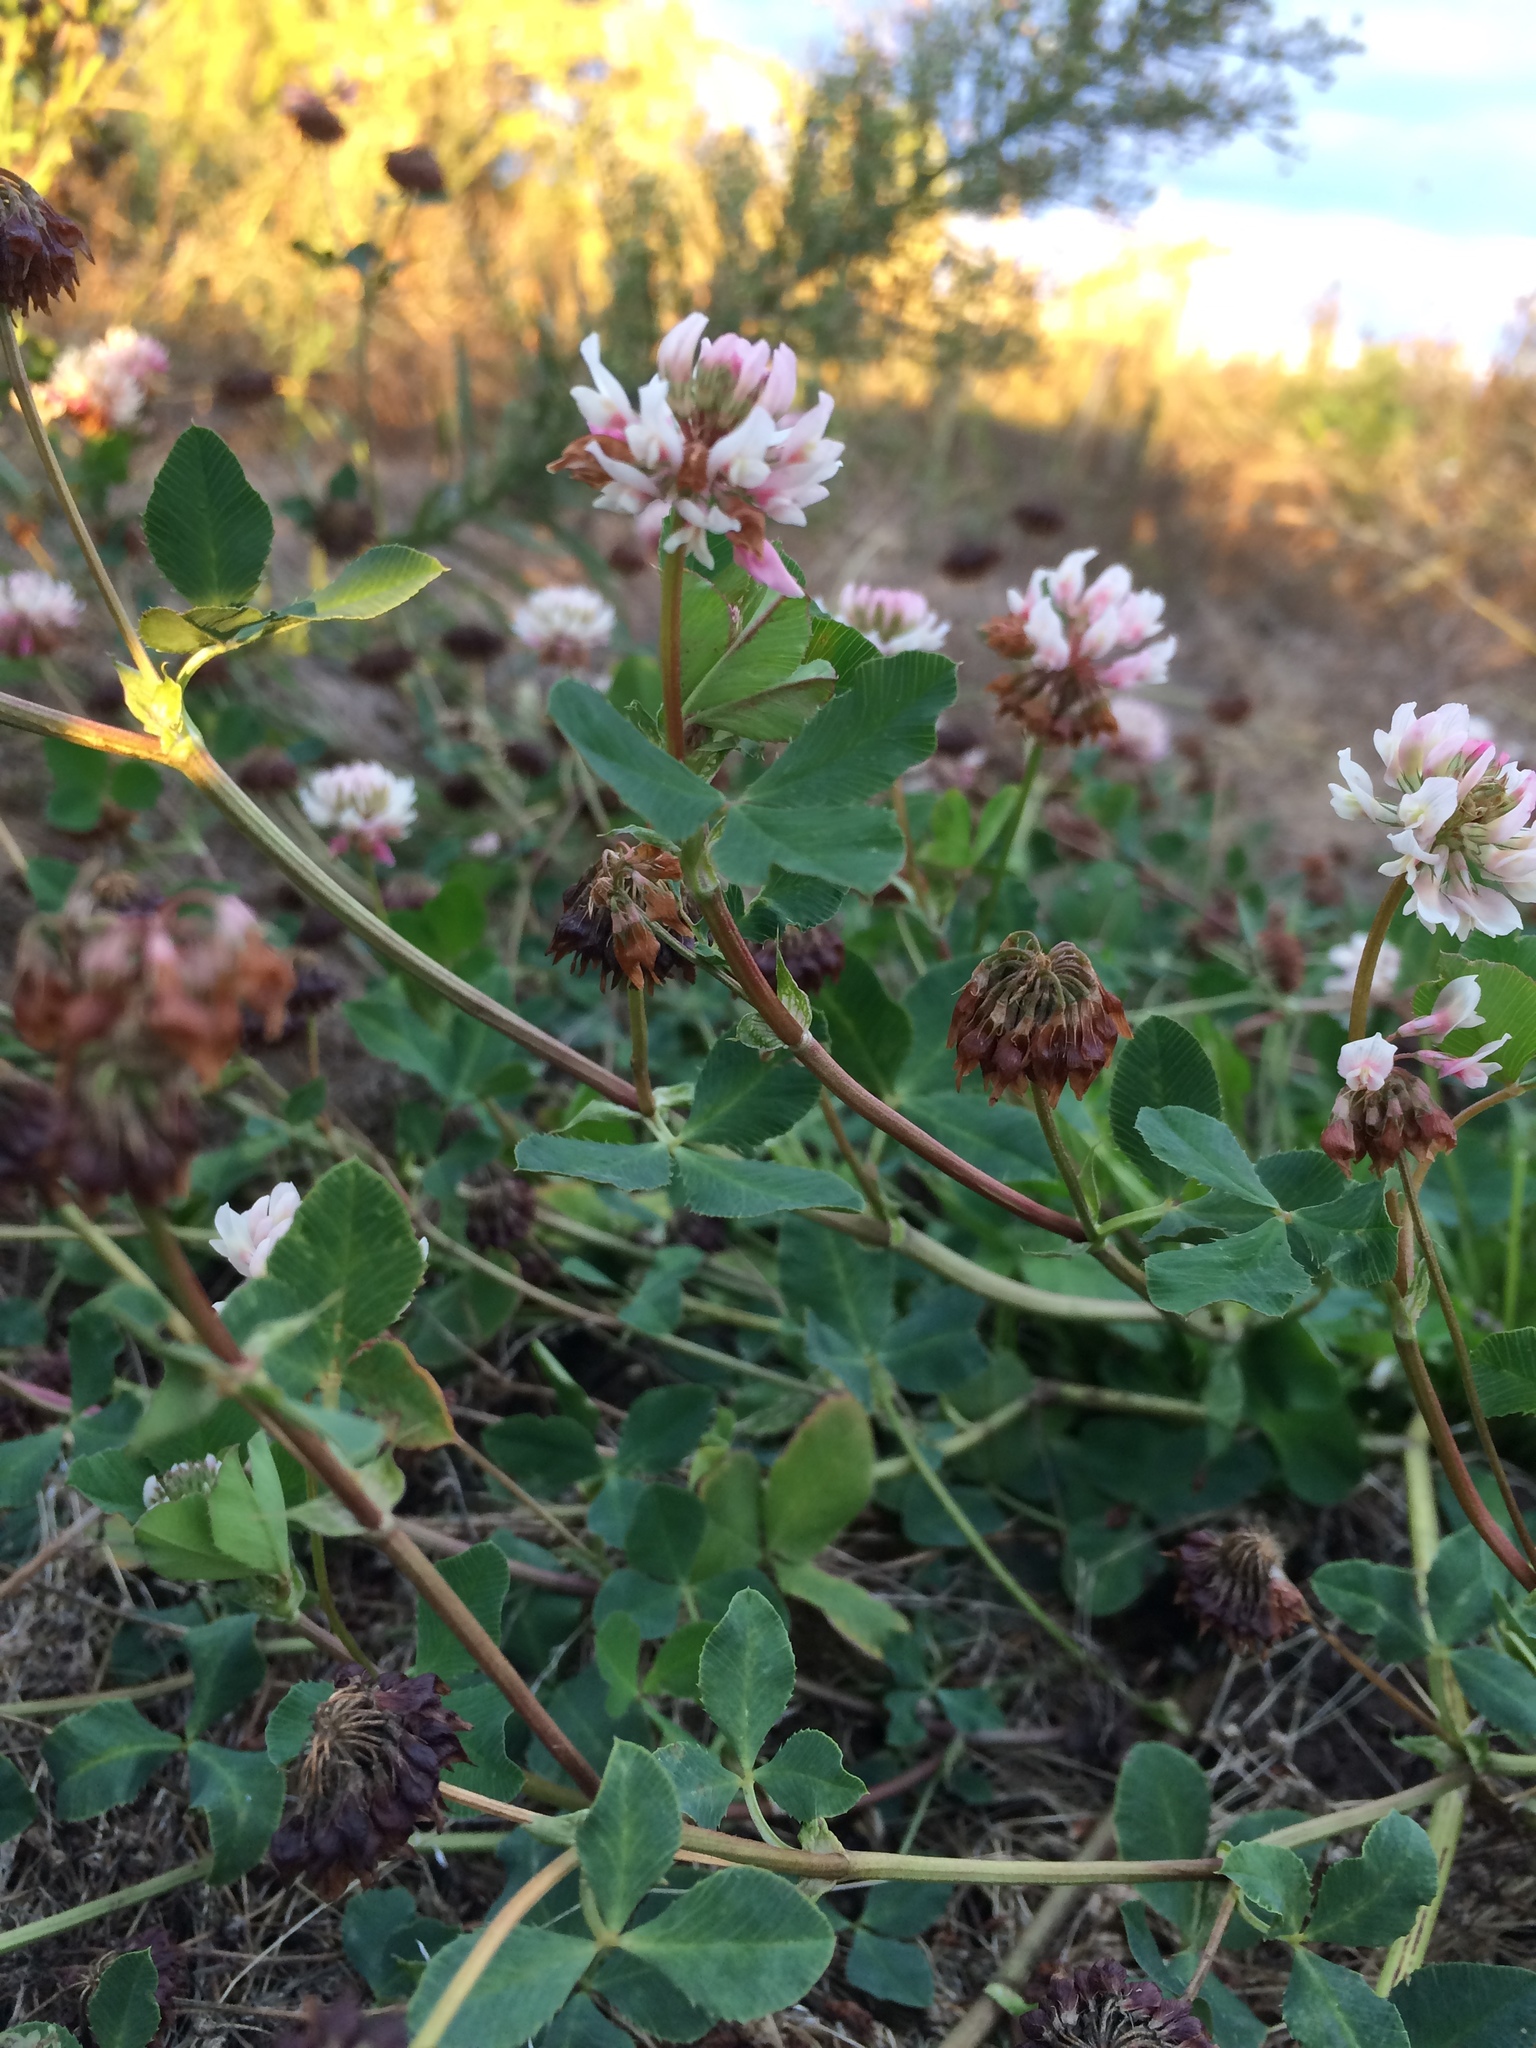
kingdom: Plantae
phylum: Tracheophyta
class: Magnoliopsida
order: Fabales
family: Fabaceae
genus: Trifolium
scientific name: Trifolium hybridum
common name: Alsike clover
